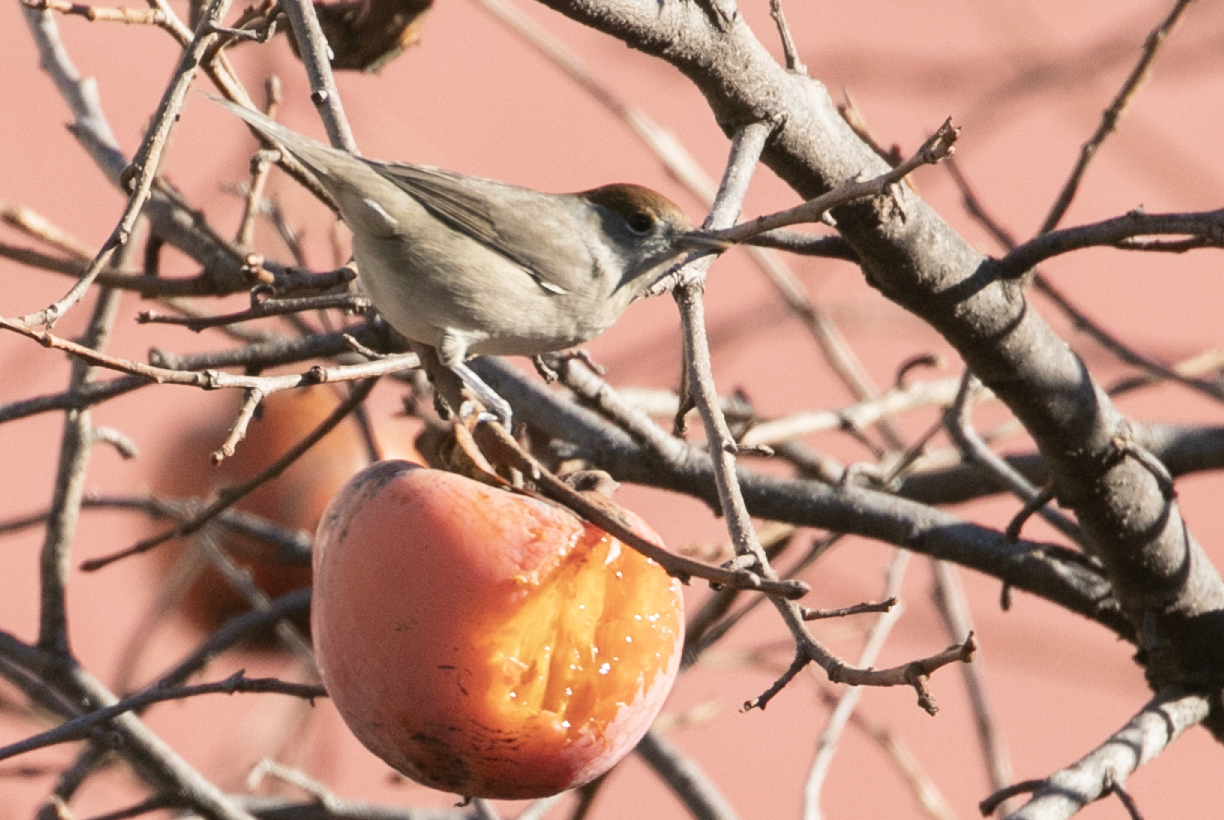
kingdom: Animalia
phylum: Chordata
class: Aves
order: Passeriformes
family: Sylviidae
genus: Sylvia
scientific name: Sylvia atricapilla
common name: Eurasian blackcap
